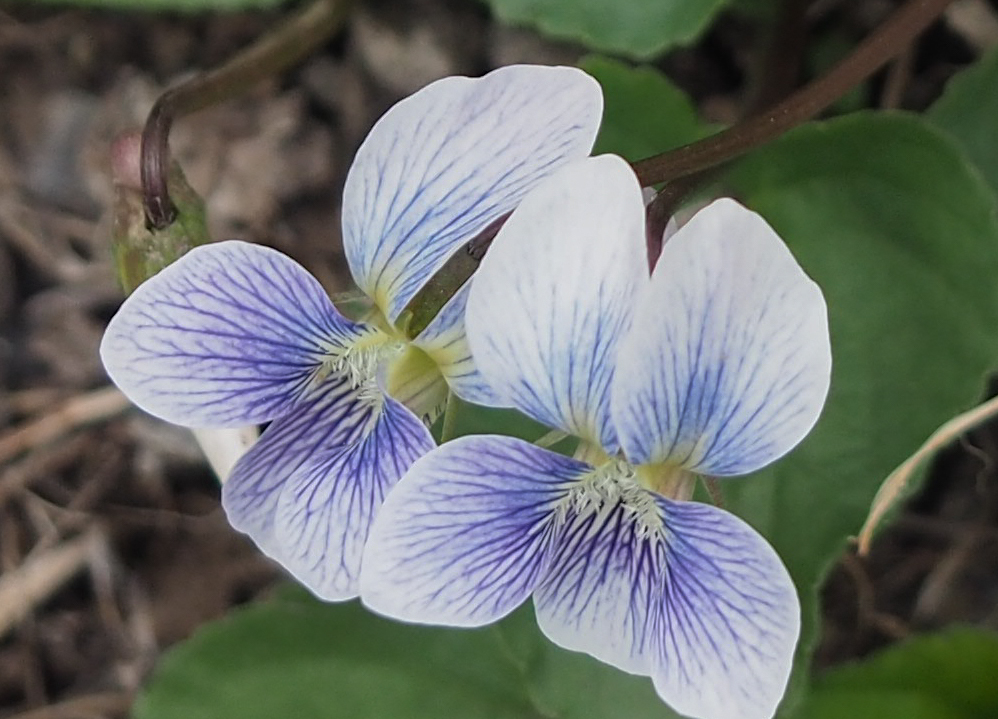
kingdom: Plantae
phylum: Tracheophyta
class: Magnoliopsida
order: Malpighiales
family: Violaceae
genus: Viola
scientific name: Viola sororia
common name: Dooryard violet
